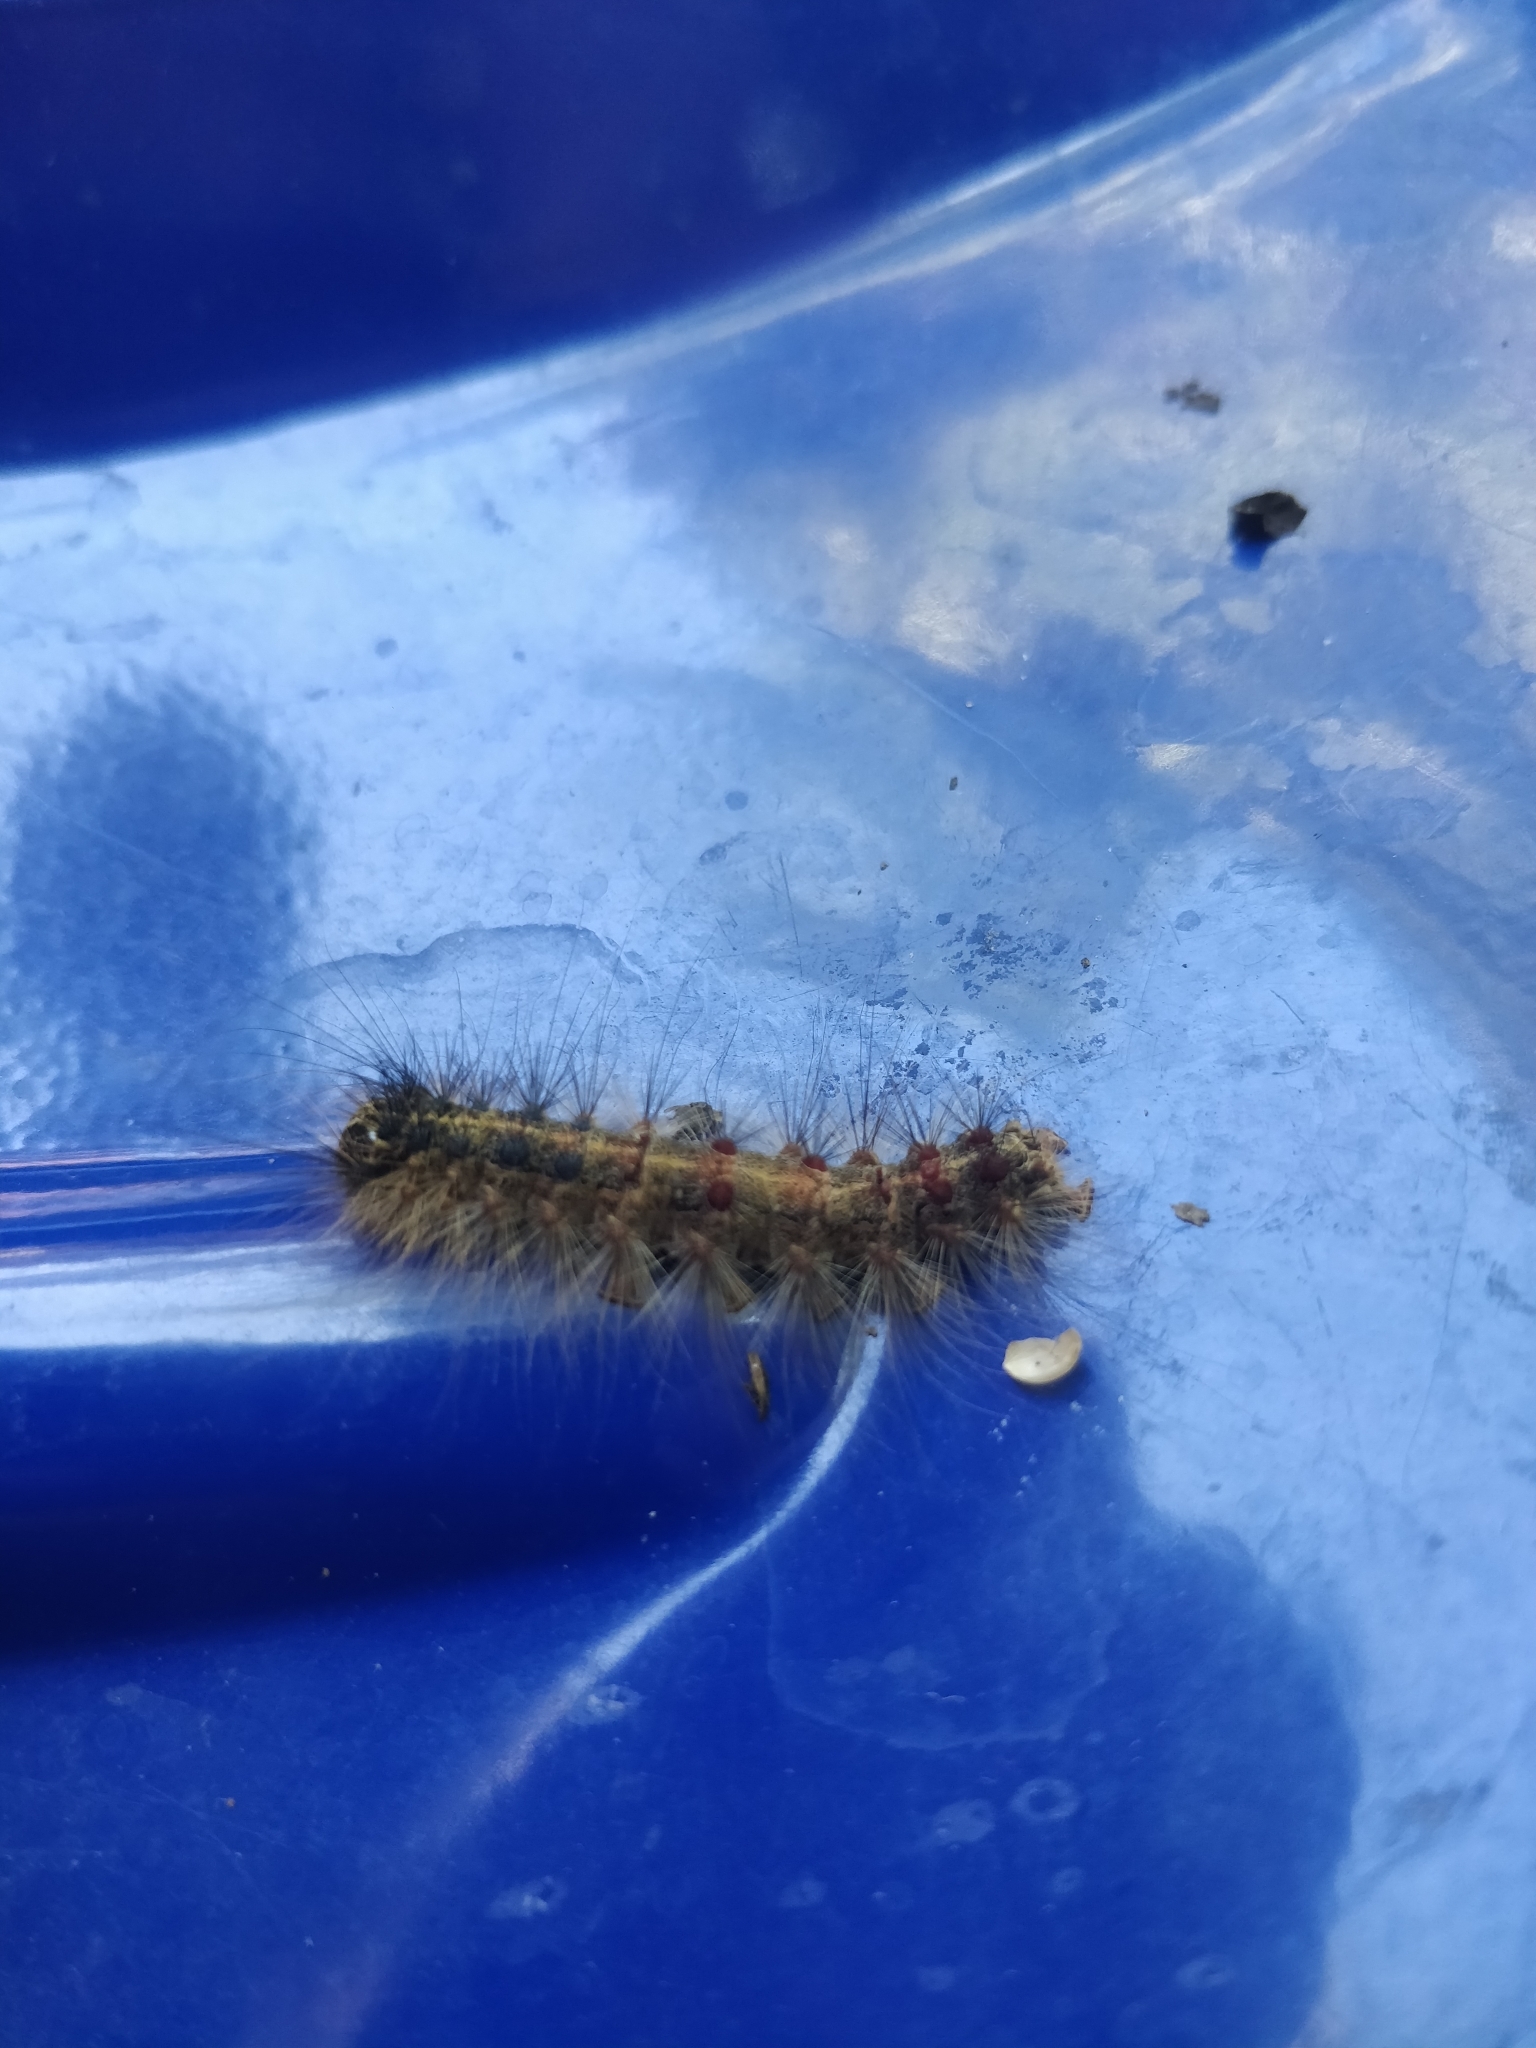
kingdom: Animalia
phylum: Arthropoda
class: Insecta
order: Lepidoptera
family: Erebidae
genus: Lymantria
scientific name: Lymantria dispar
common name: Gypsy moth
